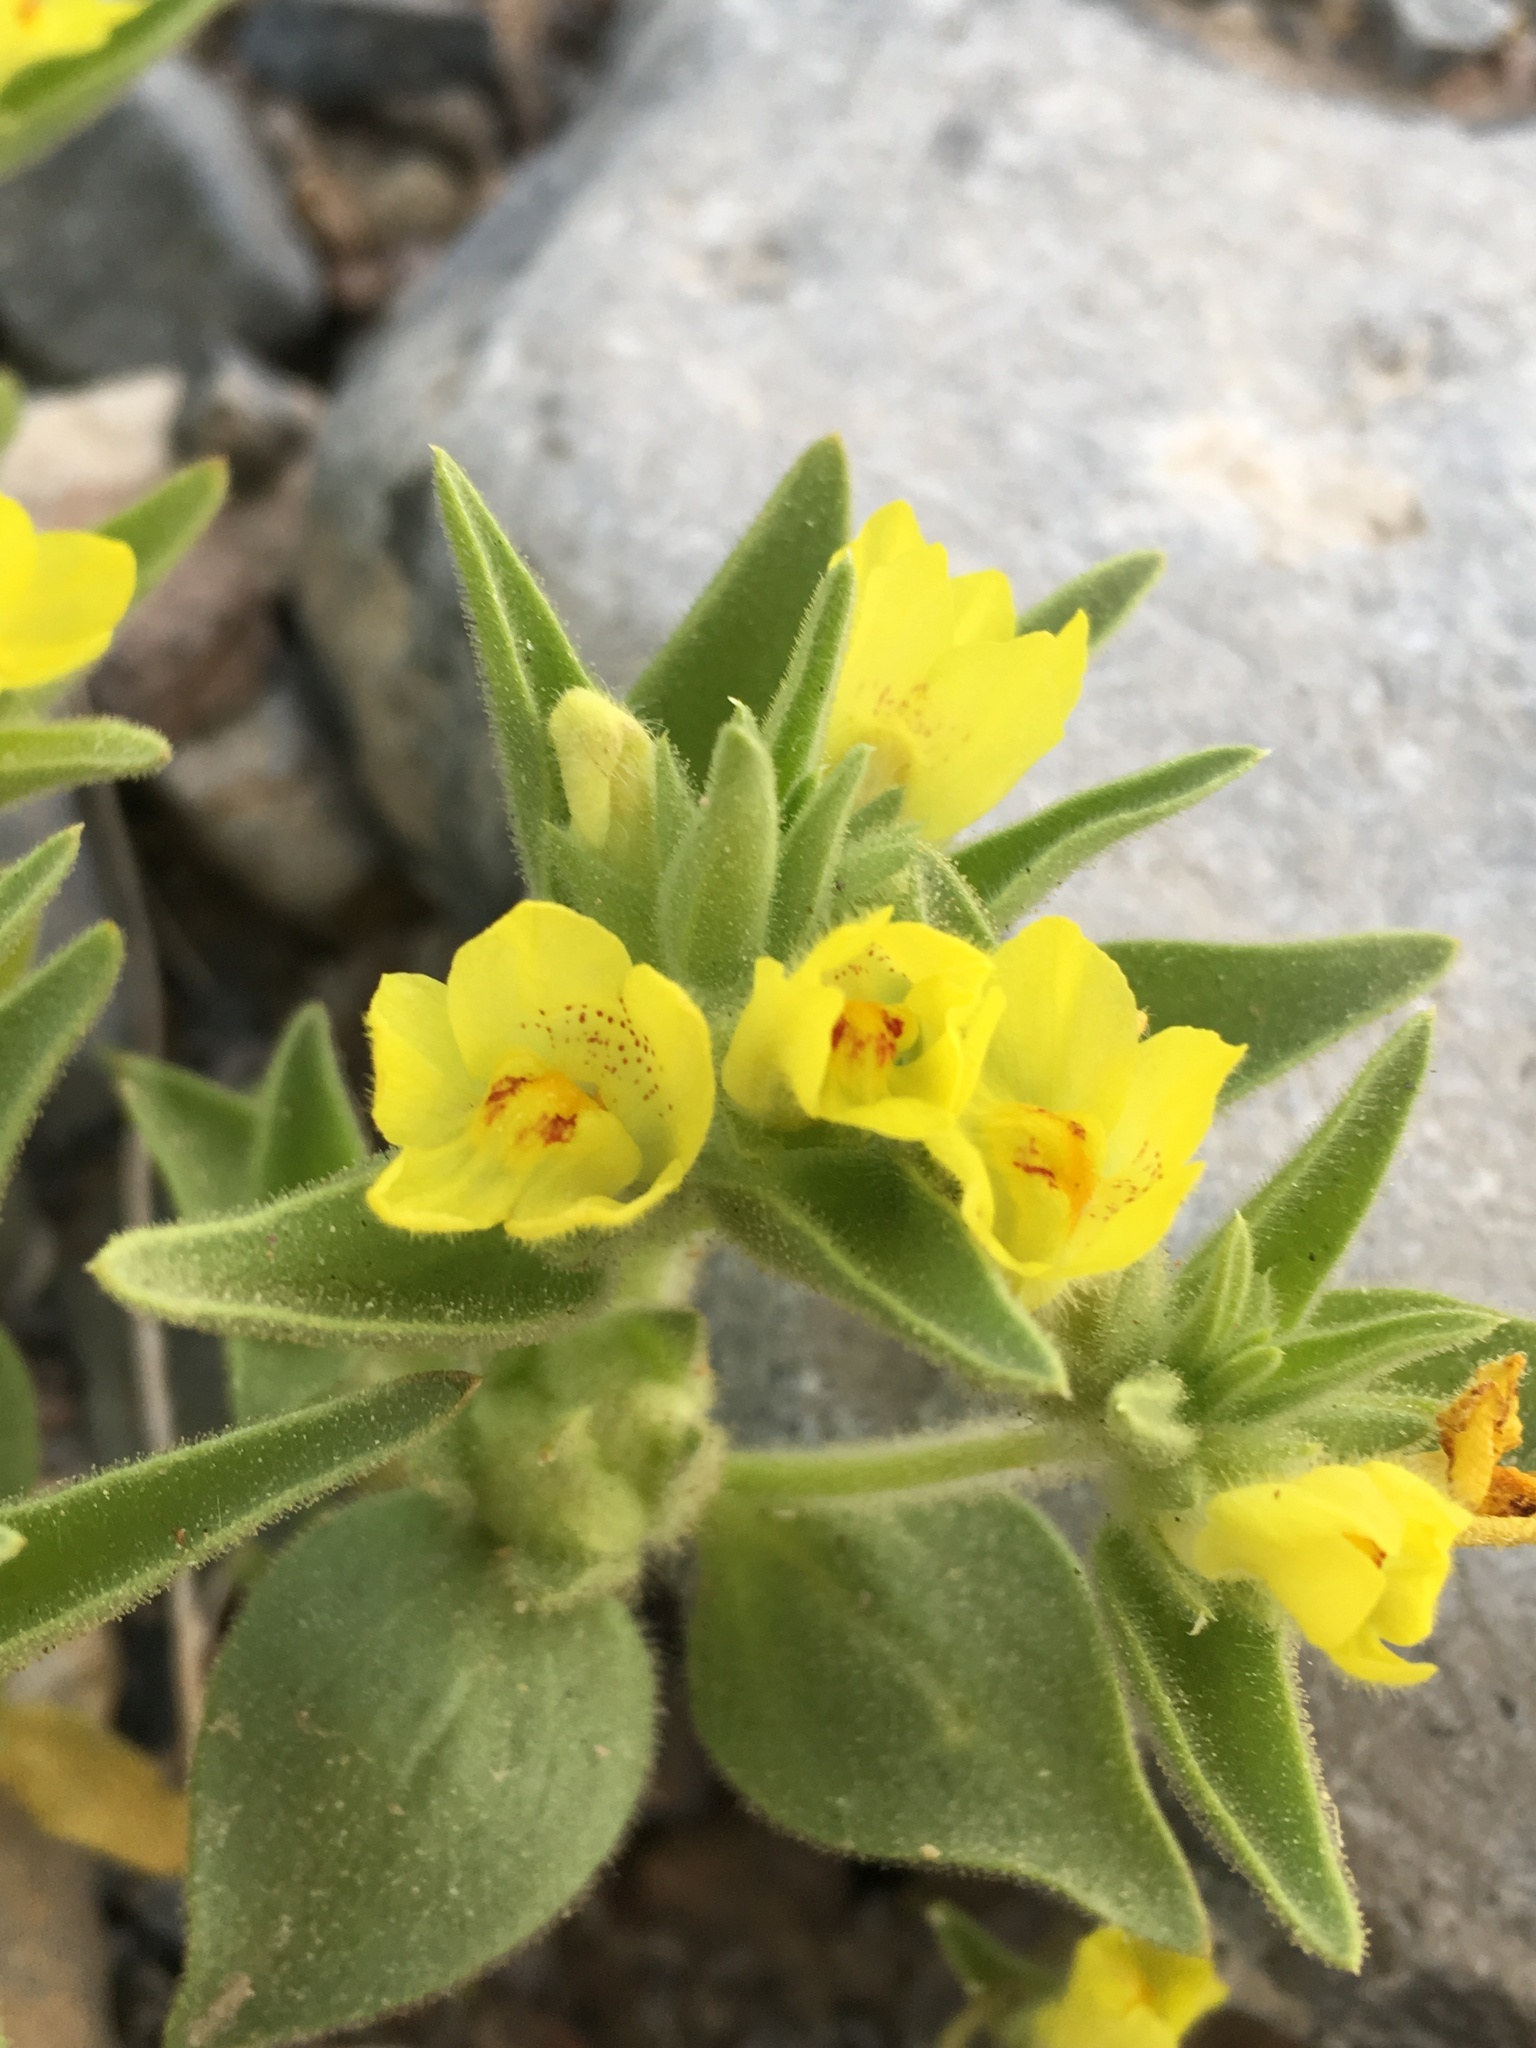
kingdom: Plantae
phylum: Tracheophyta
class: Magnoliopsida
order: Lamiales
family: Plantaginaceae
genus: Mohavea
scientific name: Mohavea breviflora
